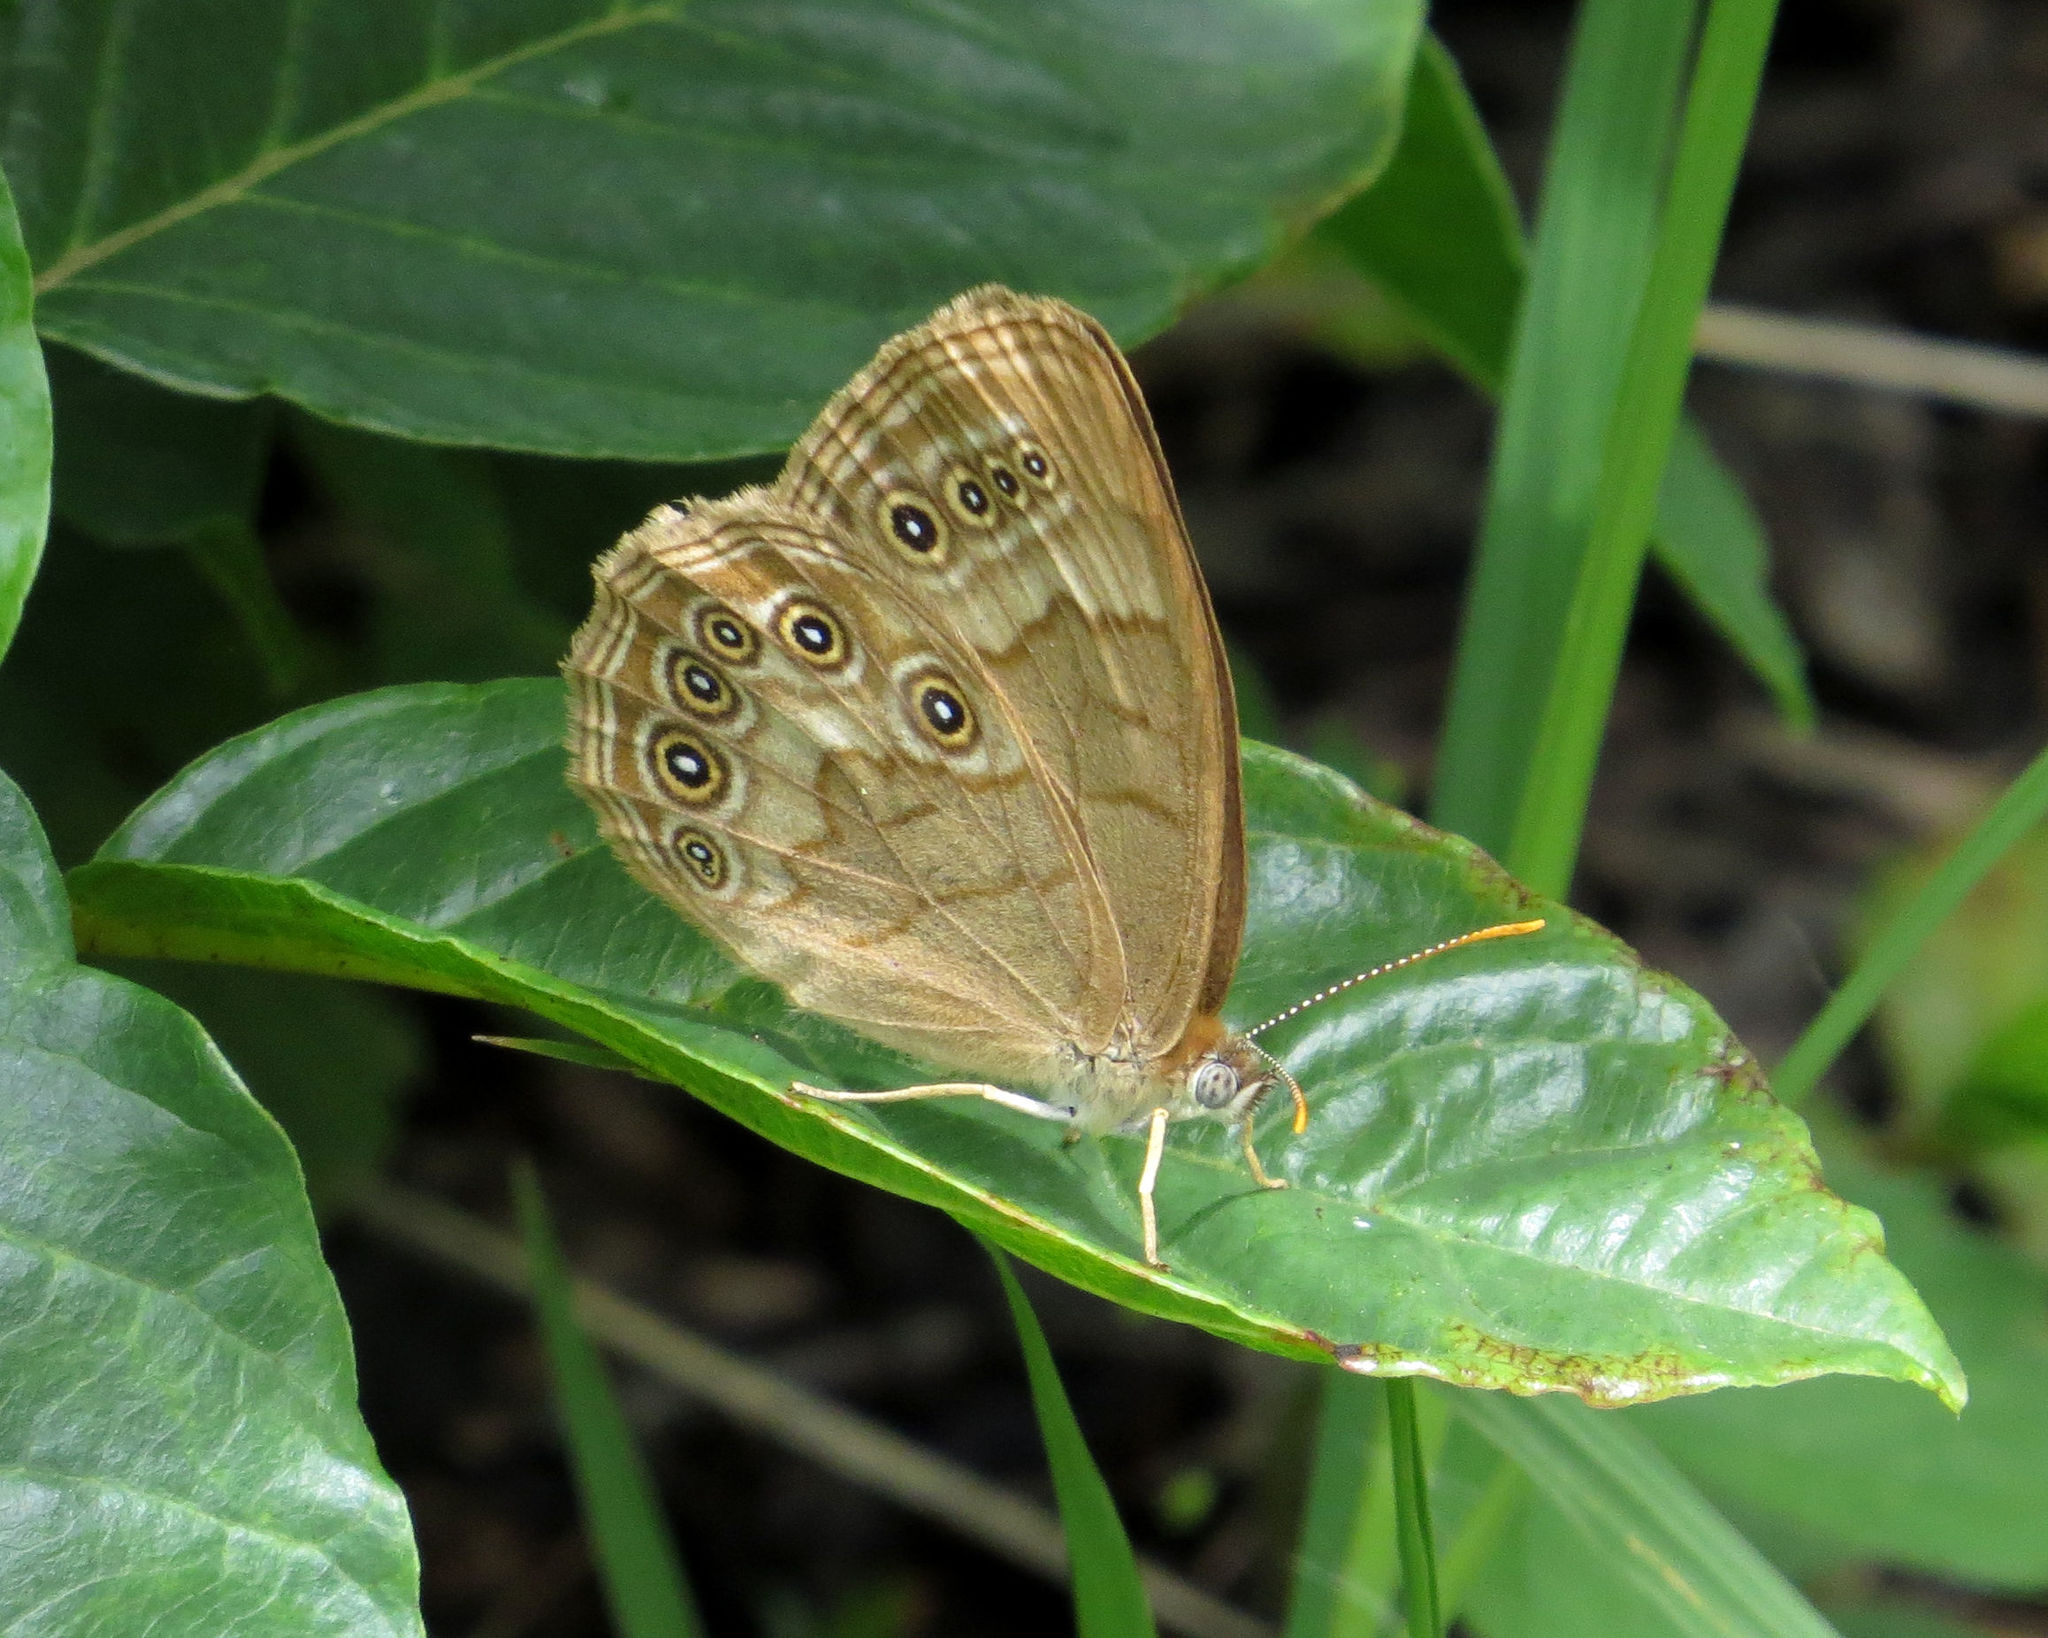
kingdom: Animalia
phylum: Arthropoda
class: Insecta
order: Lepidoptera
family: Nymphalidae
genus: Lethe
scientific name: Lethe eurydice
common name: Eyed brown
